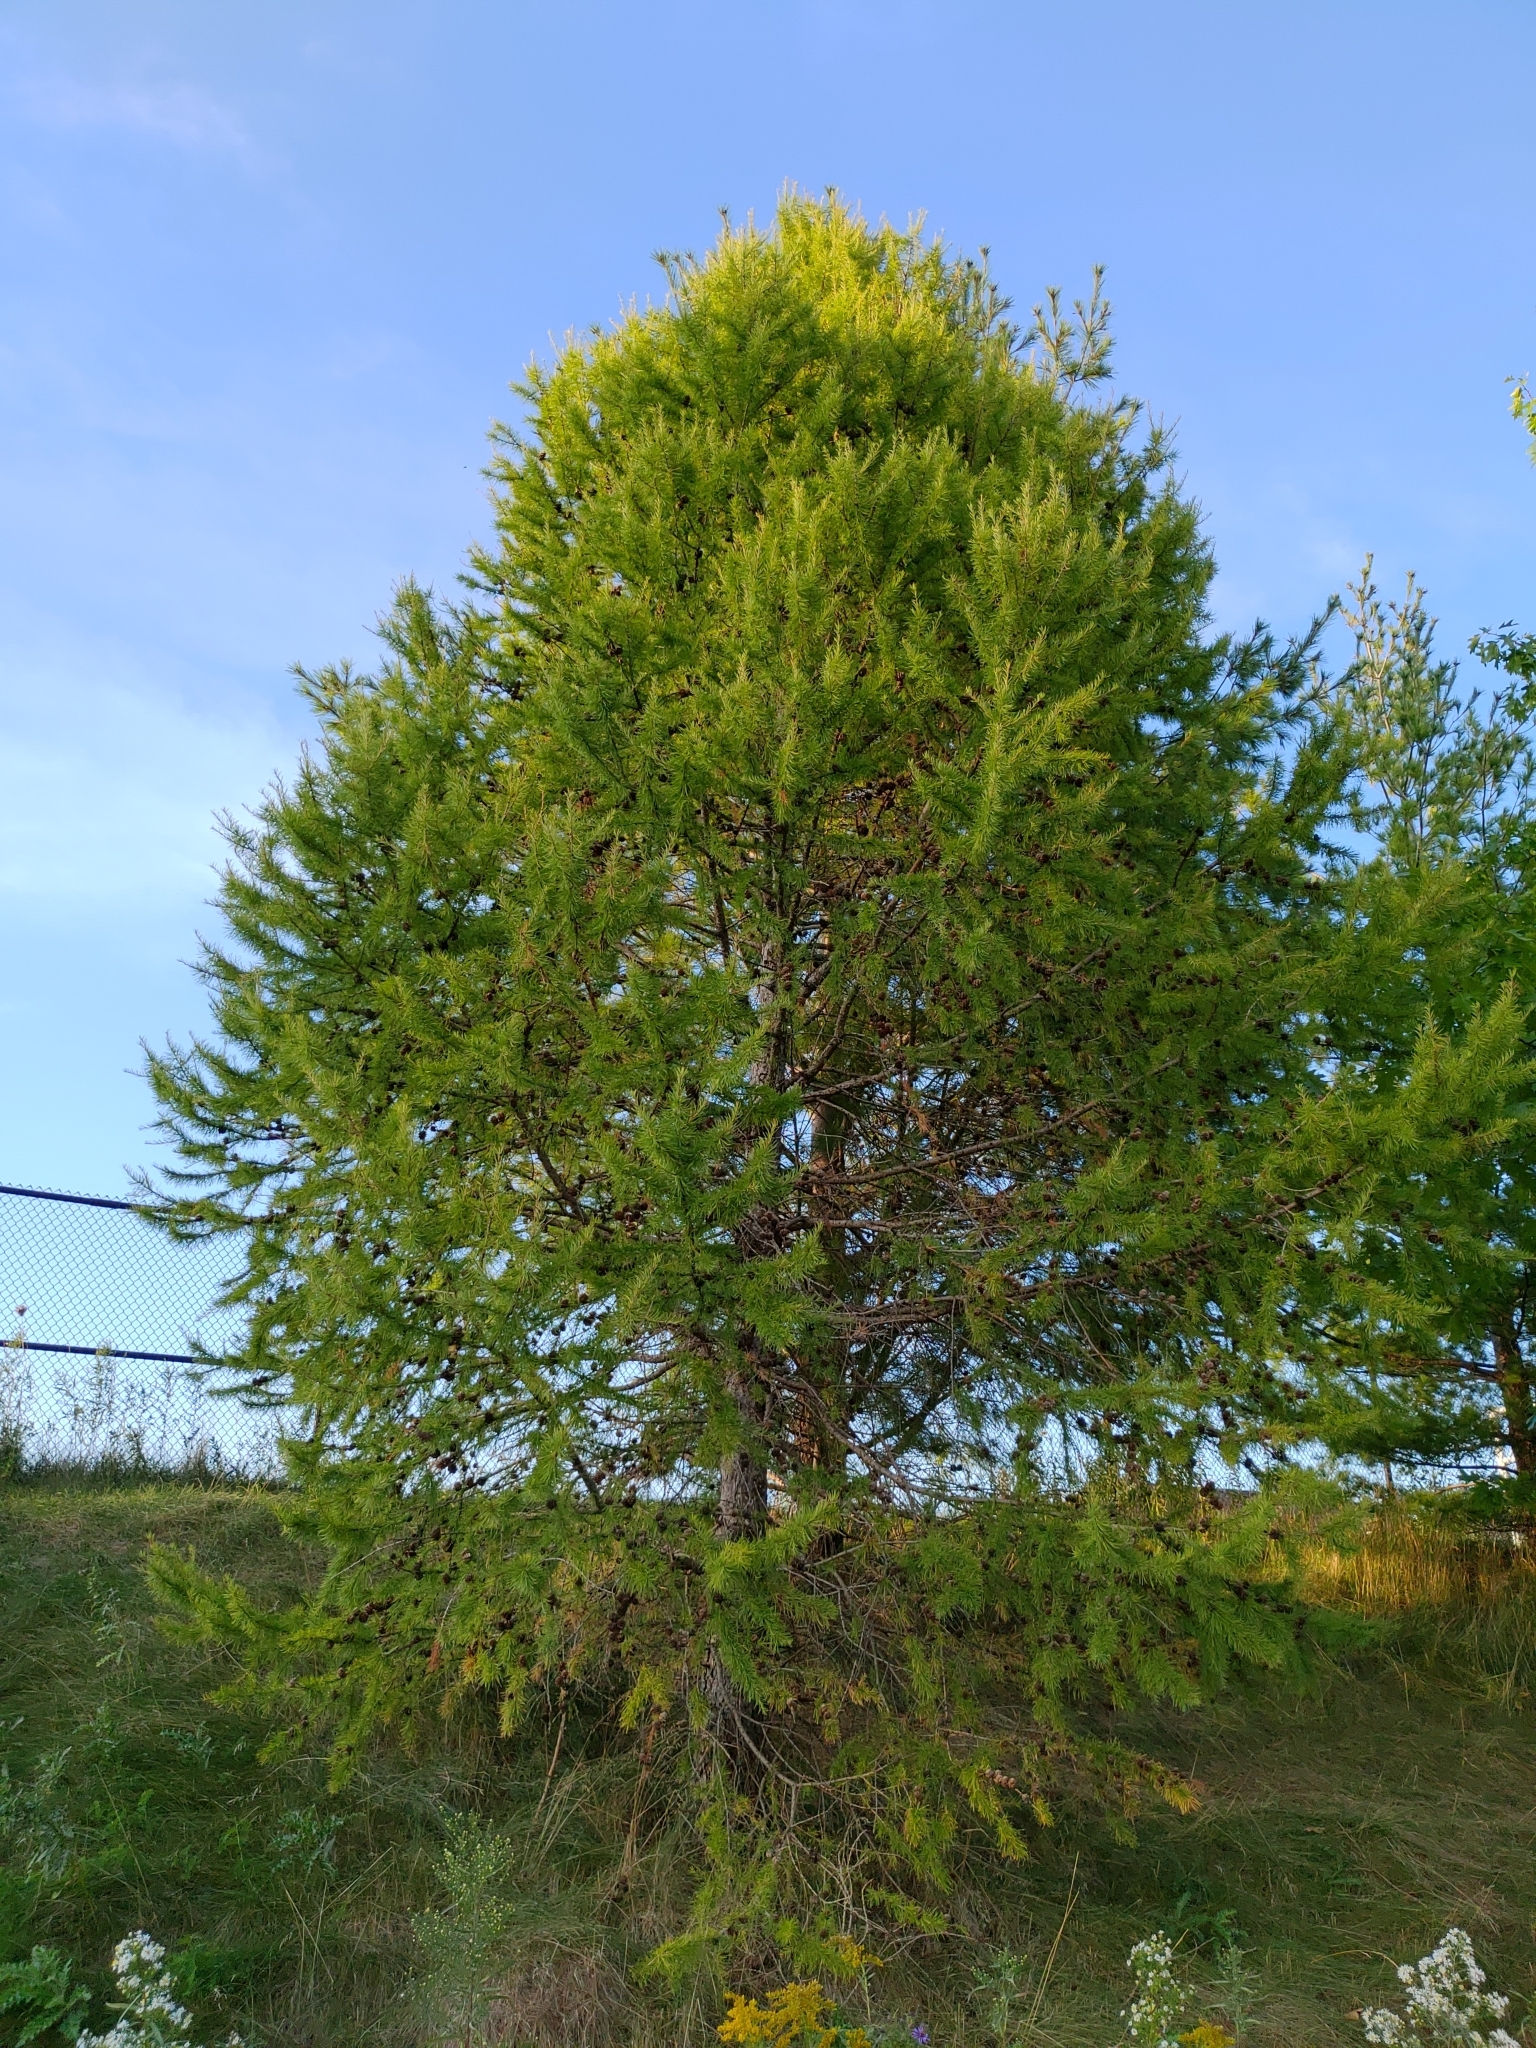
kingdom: Plantae
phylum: Tracheophyta
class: Pinopsida
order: Pinales
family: Pinaceae
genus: Larix
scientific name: Larix decidua
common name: European larch
